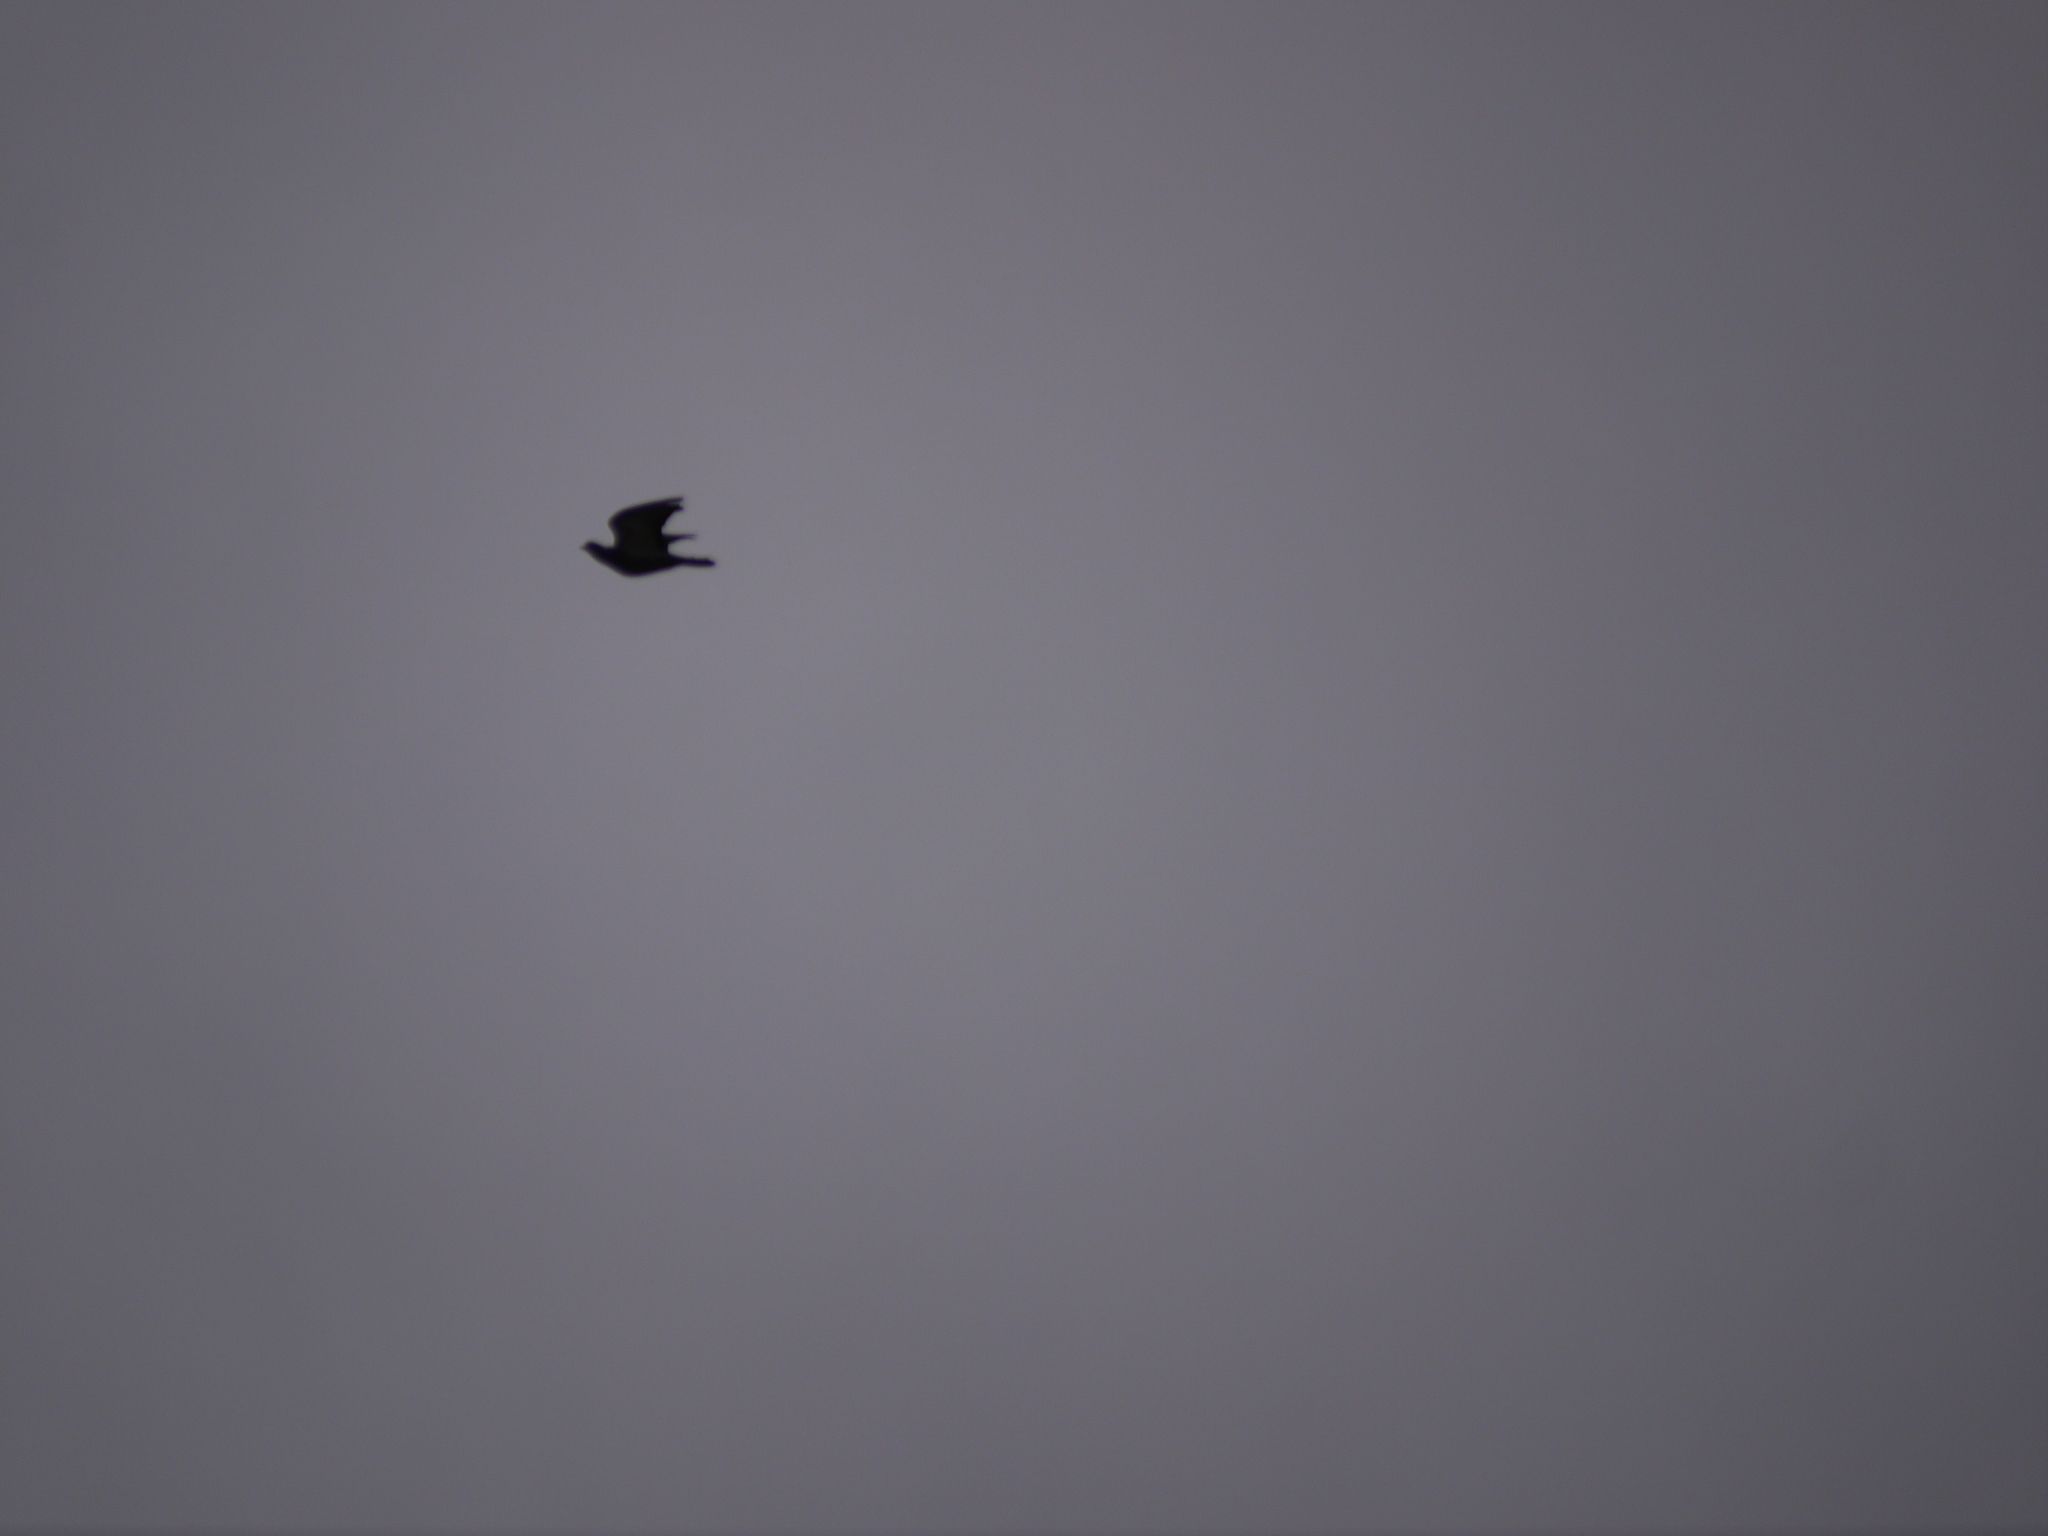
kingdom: Animalia
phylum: Chordata
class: Aves
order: Columbiformes
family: Columbidae
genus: Columba
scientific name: Columba palumbus
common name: Common wood pigeon
